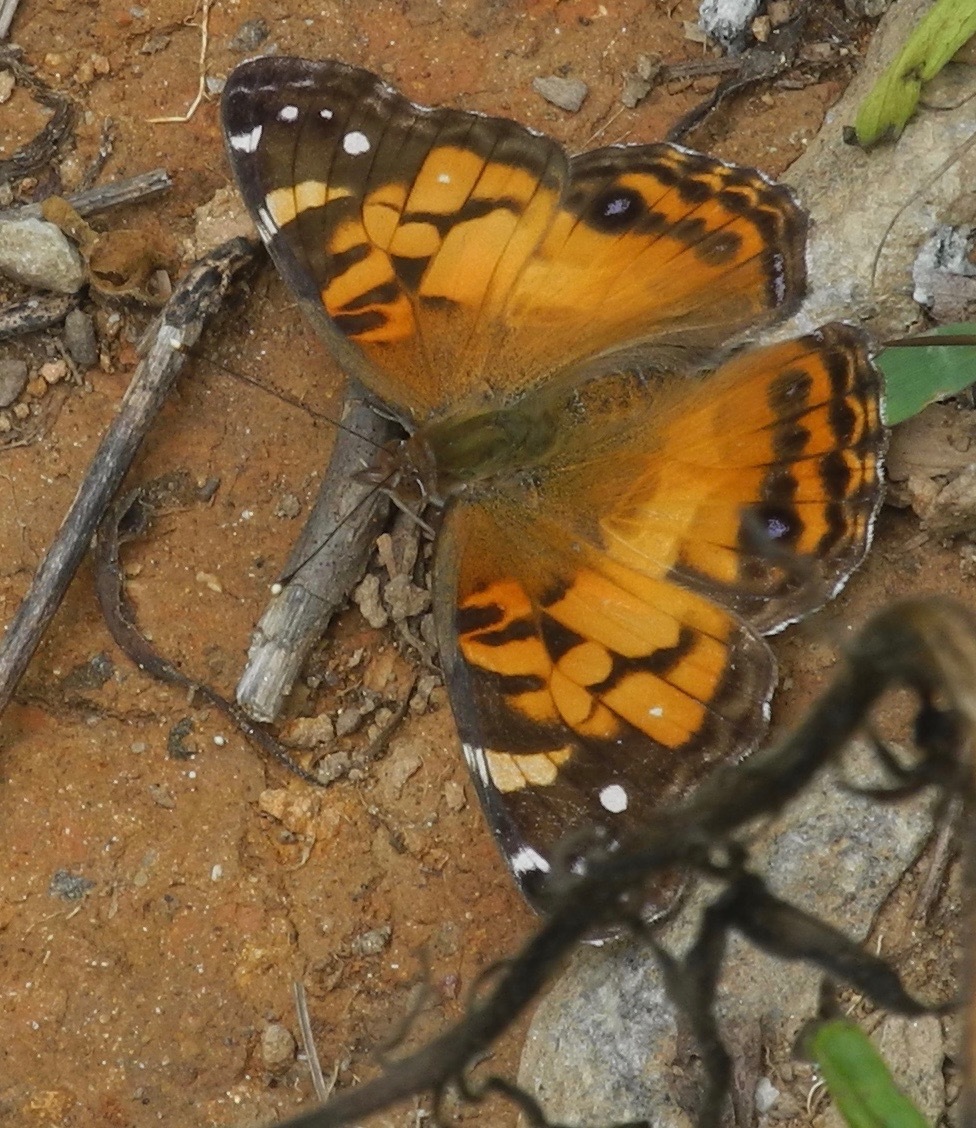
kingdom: Animalia
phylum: Arthropoda
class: Insecta
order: Lepidoptera
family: Nymphalidae
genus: Vanessa
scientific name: Vanessa virginiensis
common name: American lady
